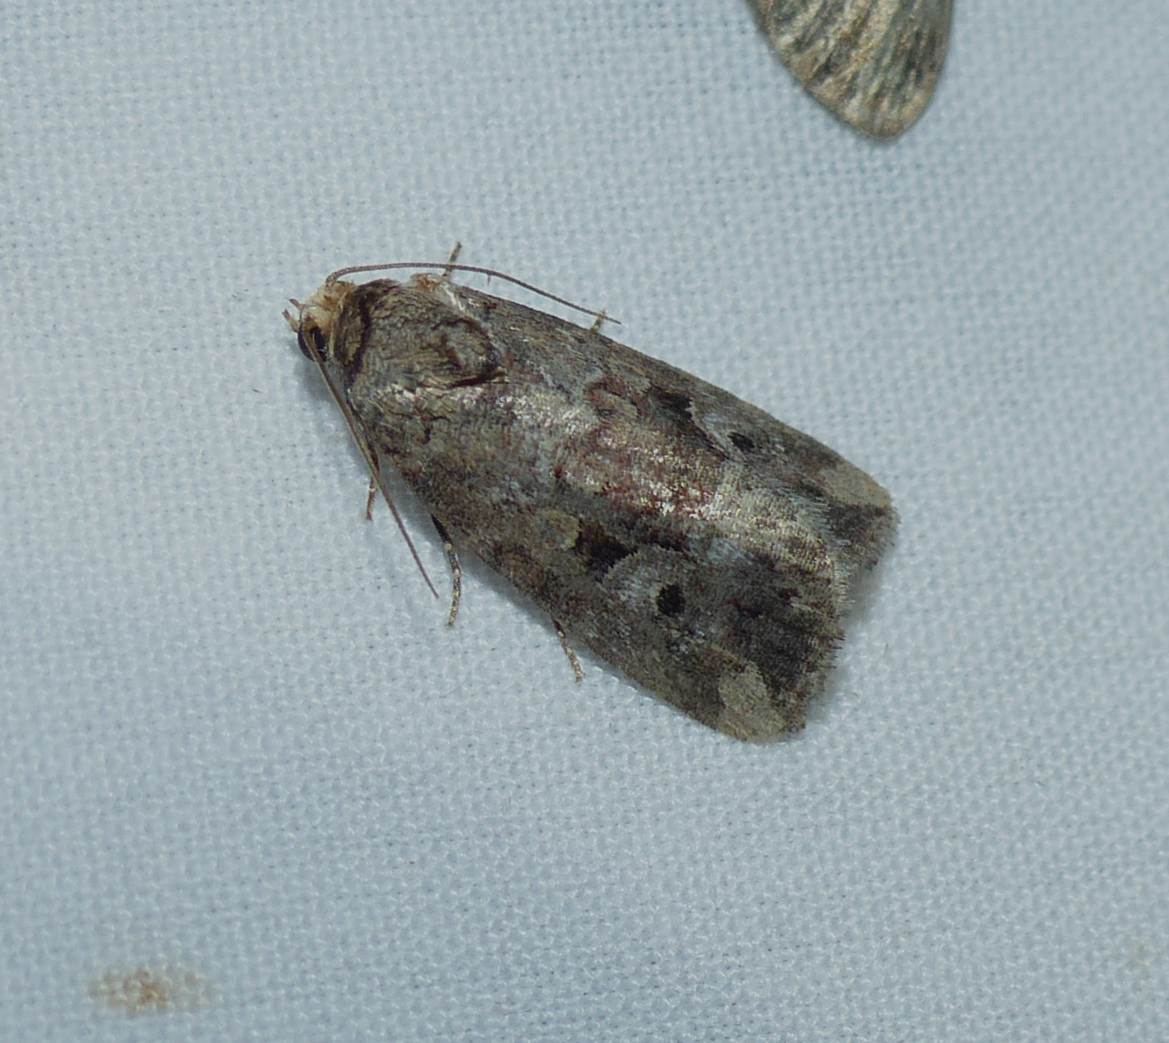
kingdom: Animalia
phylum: Arthropoda
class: Insecta
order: Lepidoptera
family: Noctuidae
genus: Elaphria
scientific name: Elaphria alapallida
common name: Pale-winged midget
